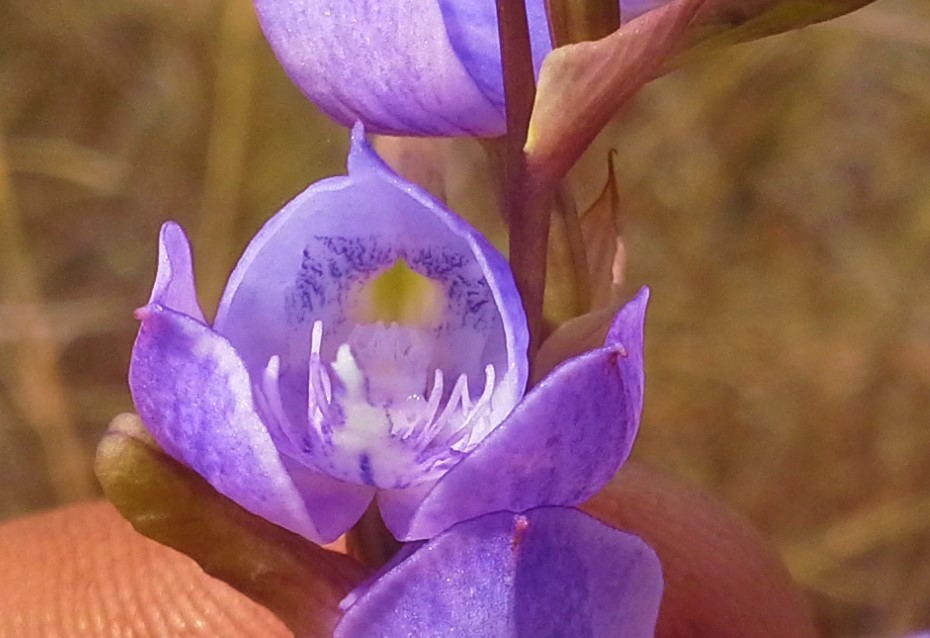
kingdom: Plantae
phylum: Tracheophyta
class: Liliopsida
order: Asparagales
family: Orchidaceae
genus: Disa
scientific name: Disa baurii
